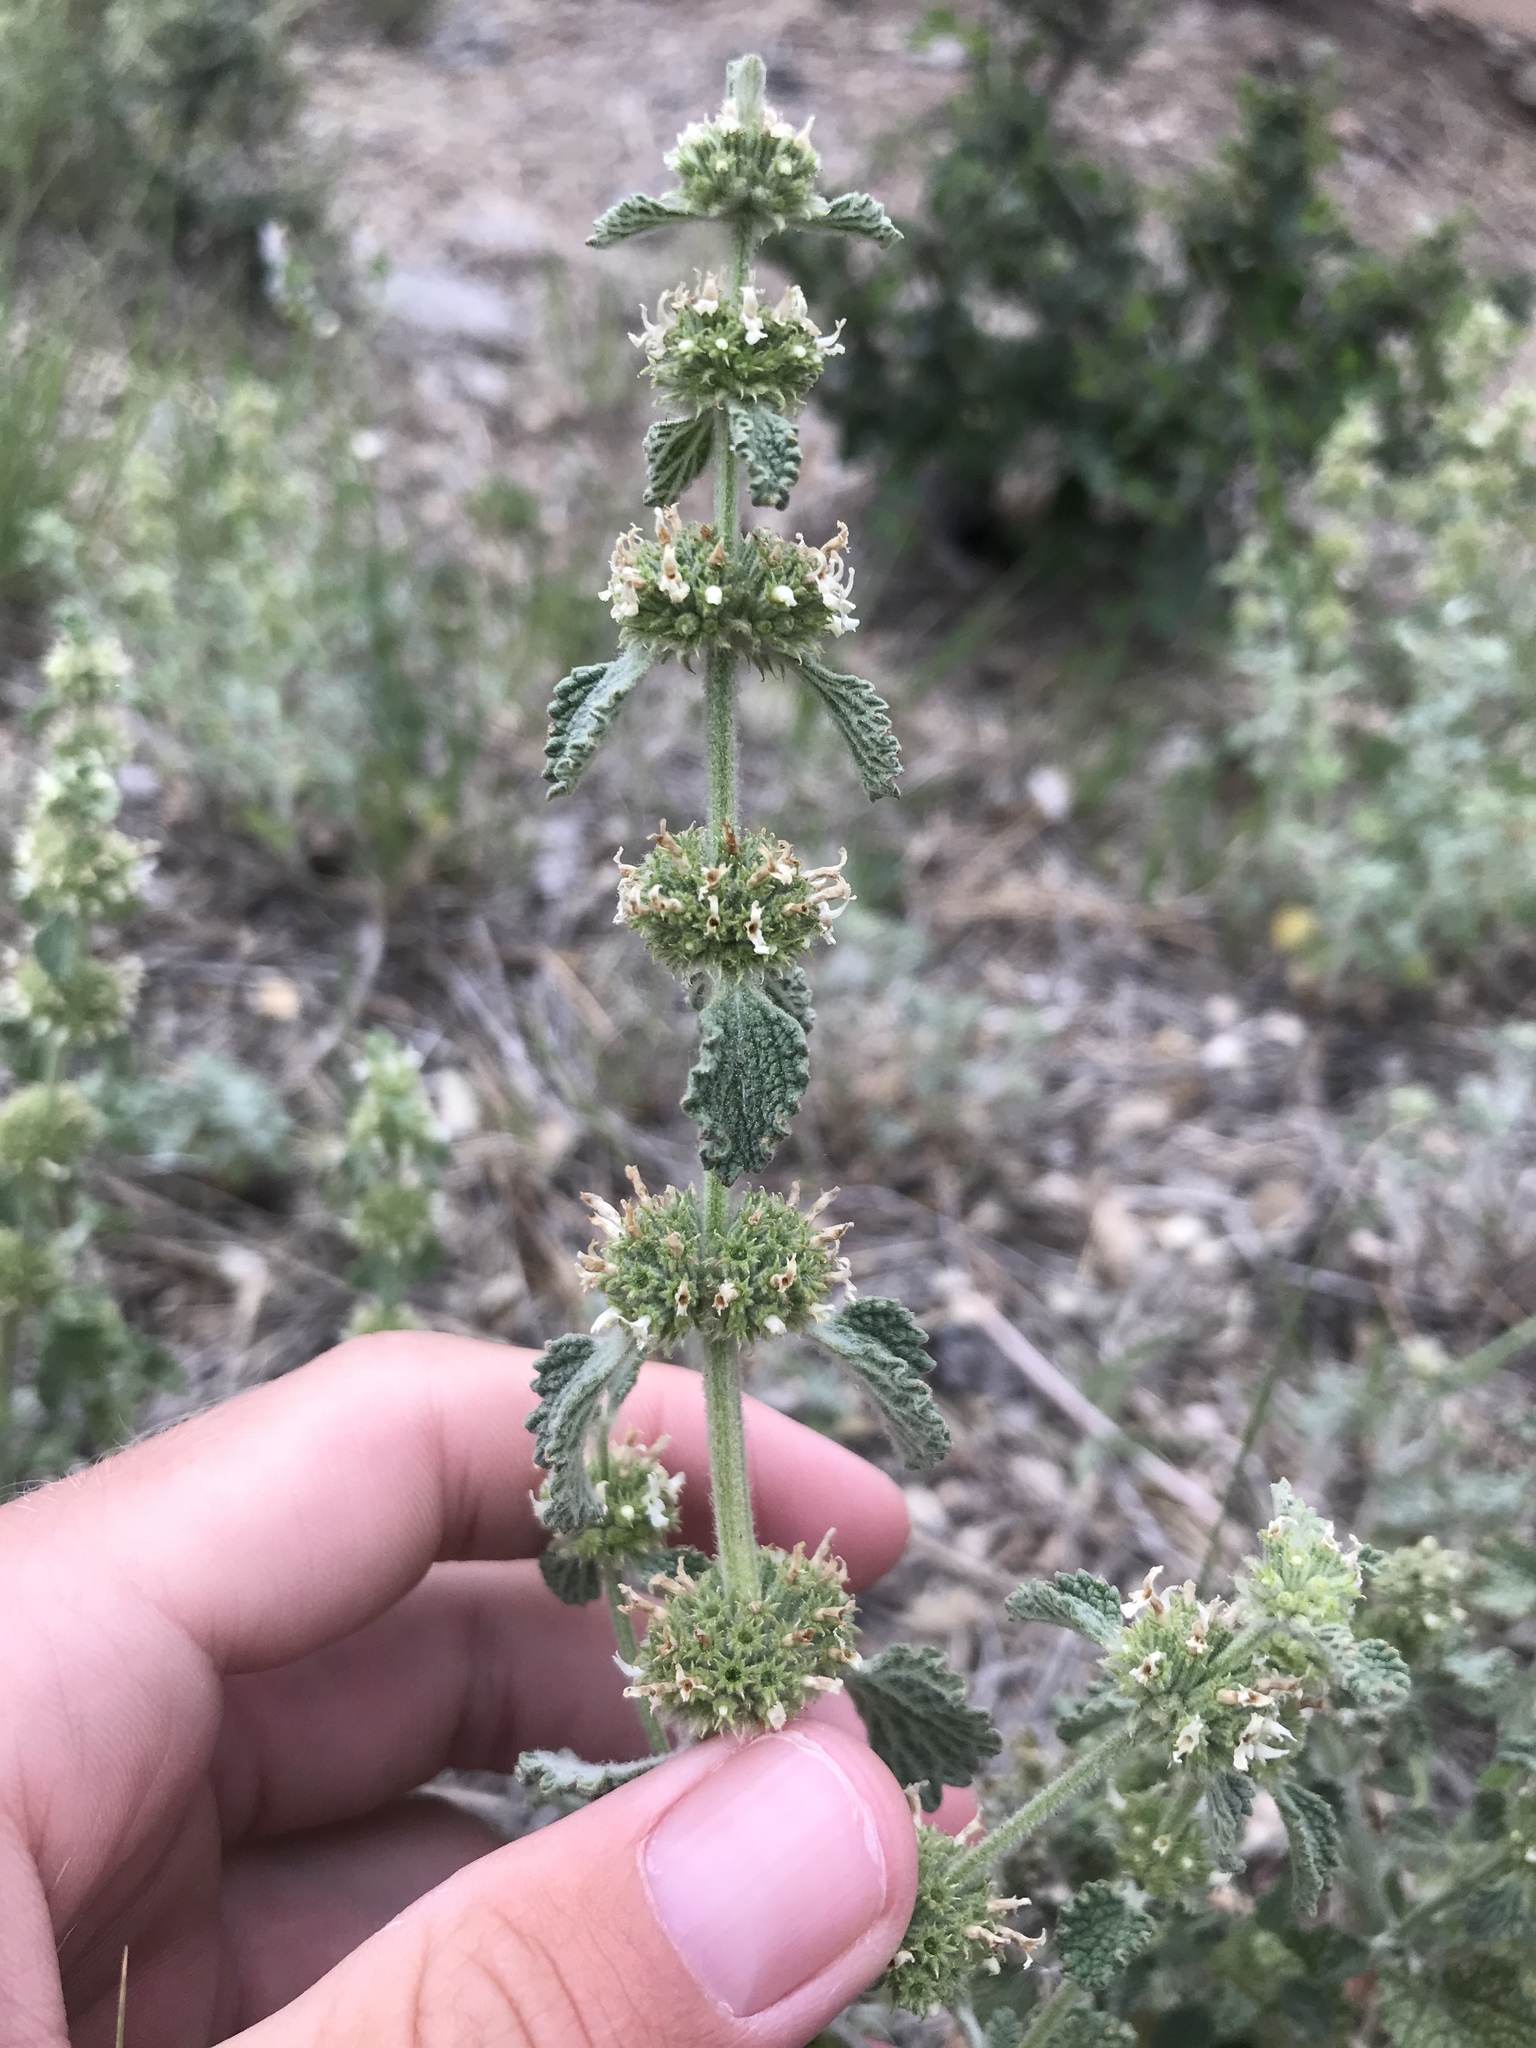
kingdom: Plantae
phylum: Tracheophyta
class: Magnoliopsida
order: Lamiales
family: Lamiaceae
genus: Marrubium
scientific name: Marrubium vulgare
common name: Horehound
